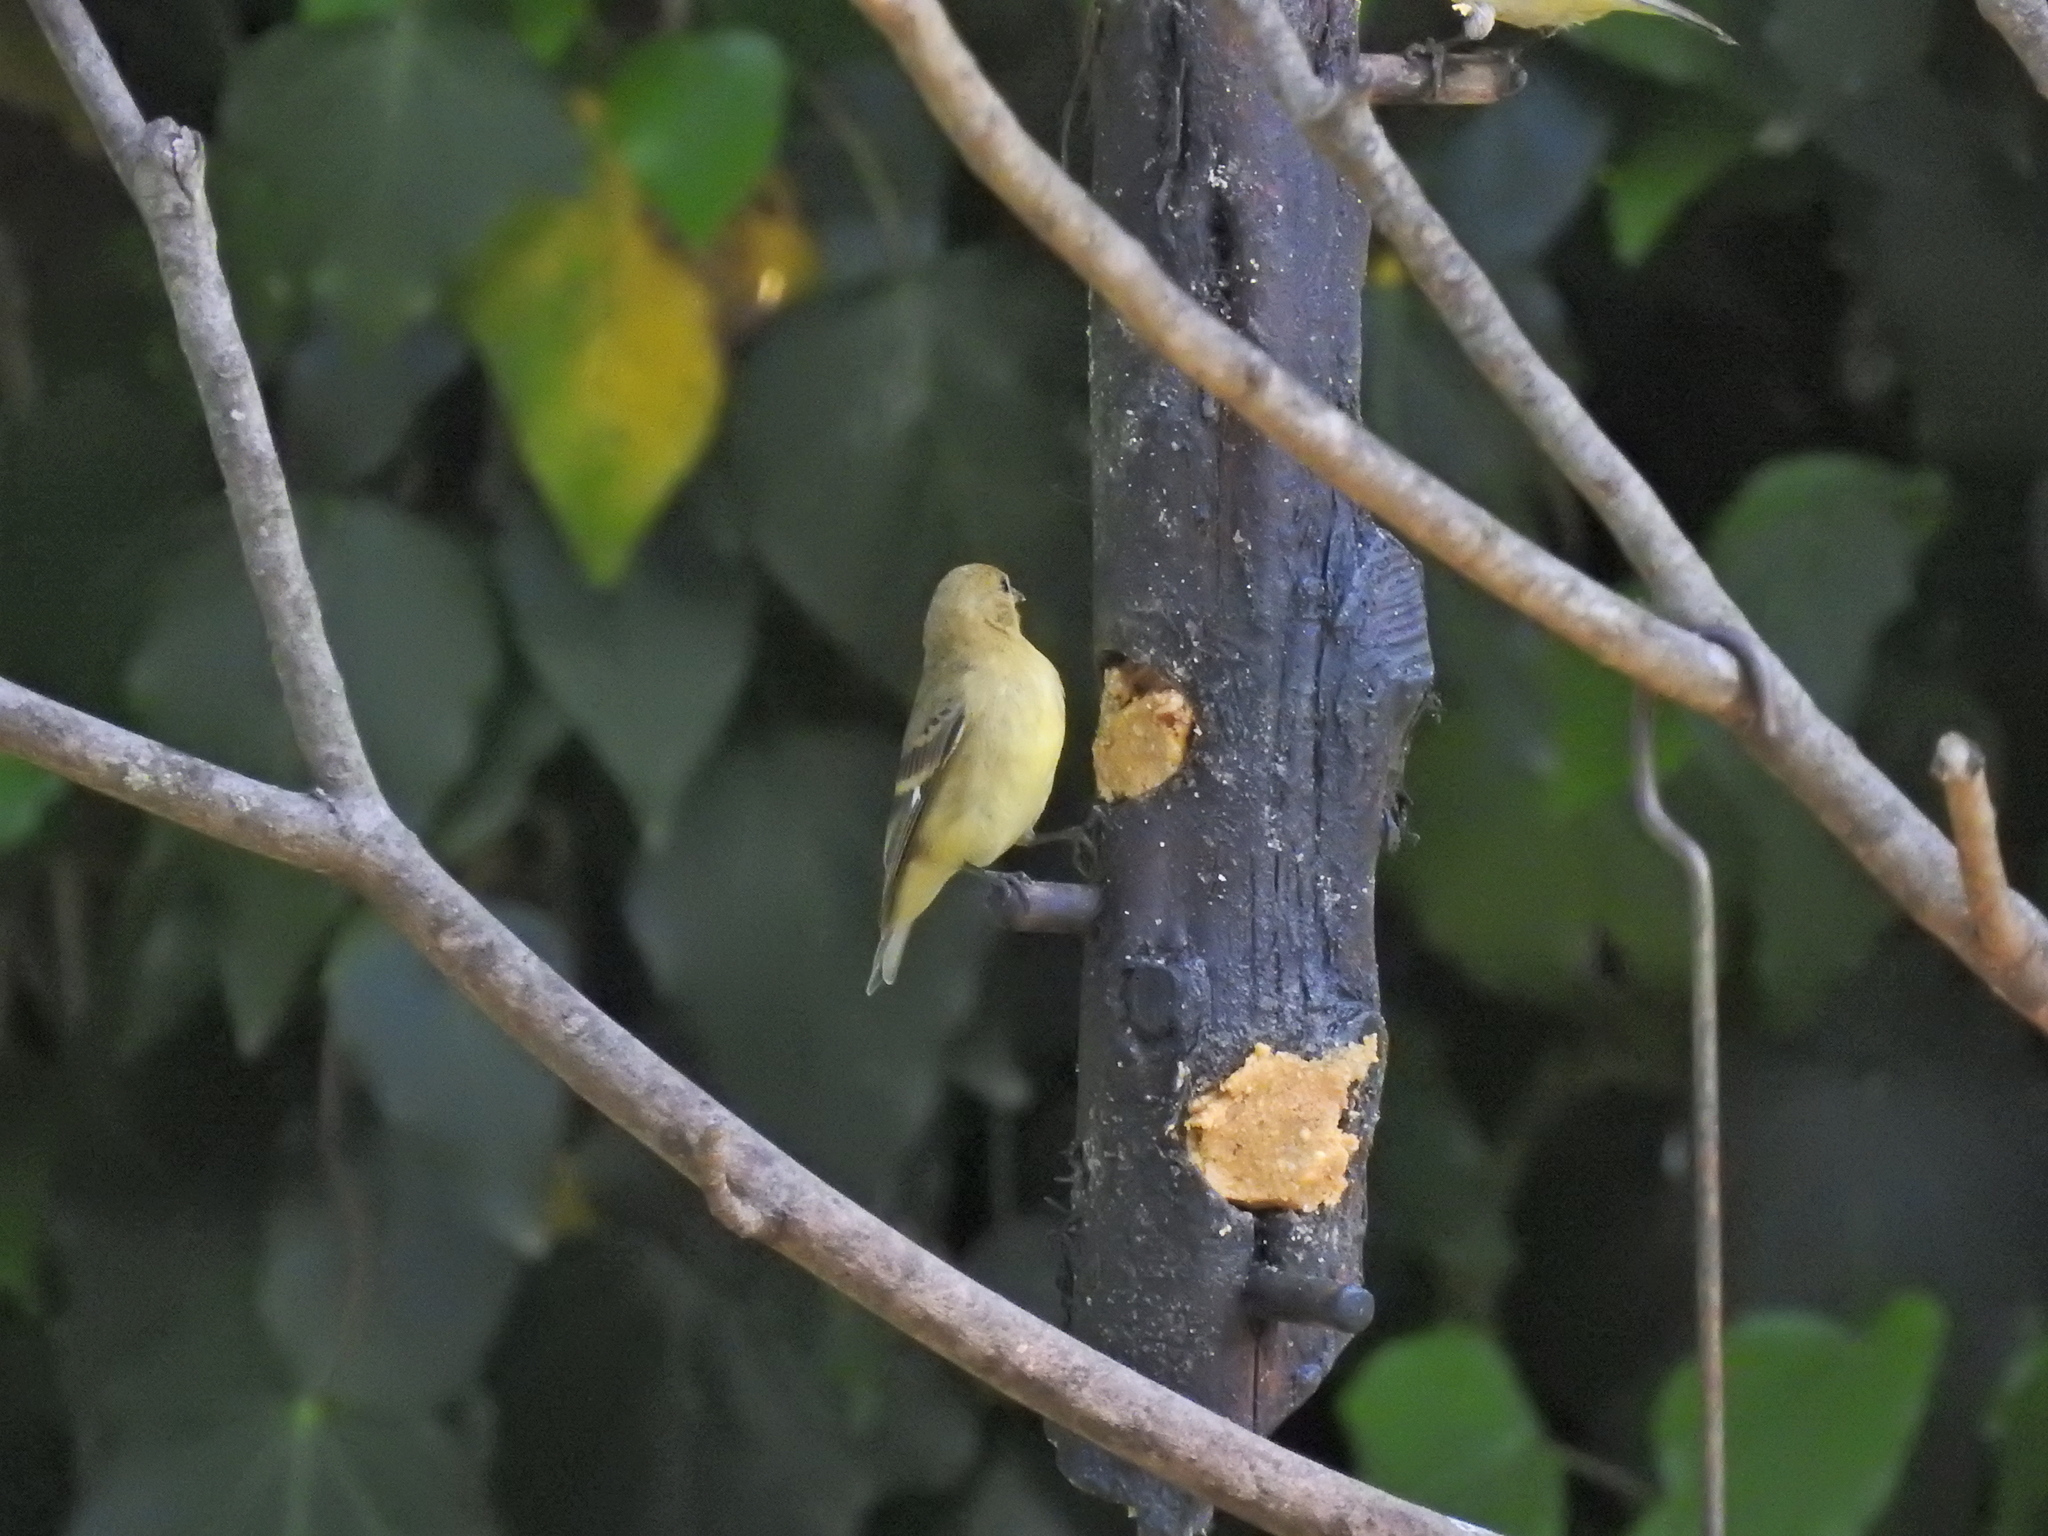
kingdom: Animalia
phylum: Chordata
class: Aves
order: Passeriformes
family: Fringillidae
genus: Spinus
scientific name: Spinus psaltria
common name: Lesser goldfinch
